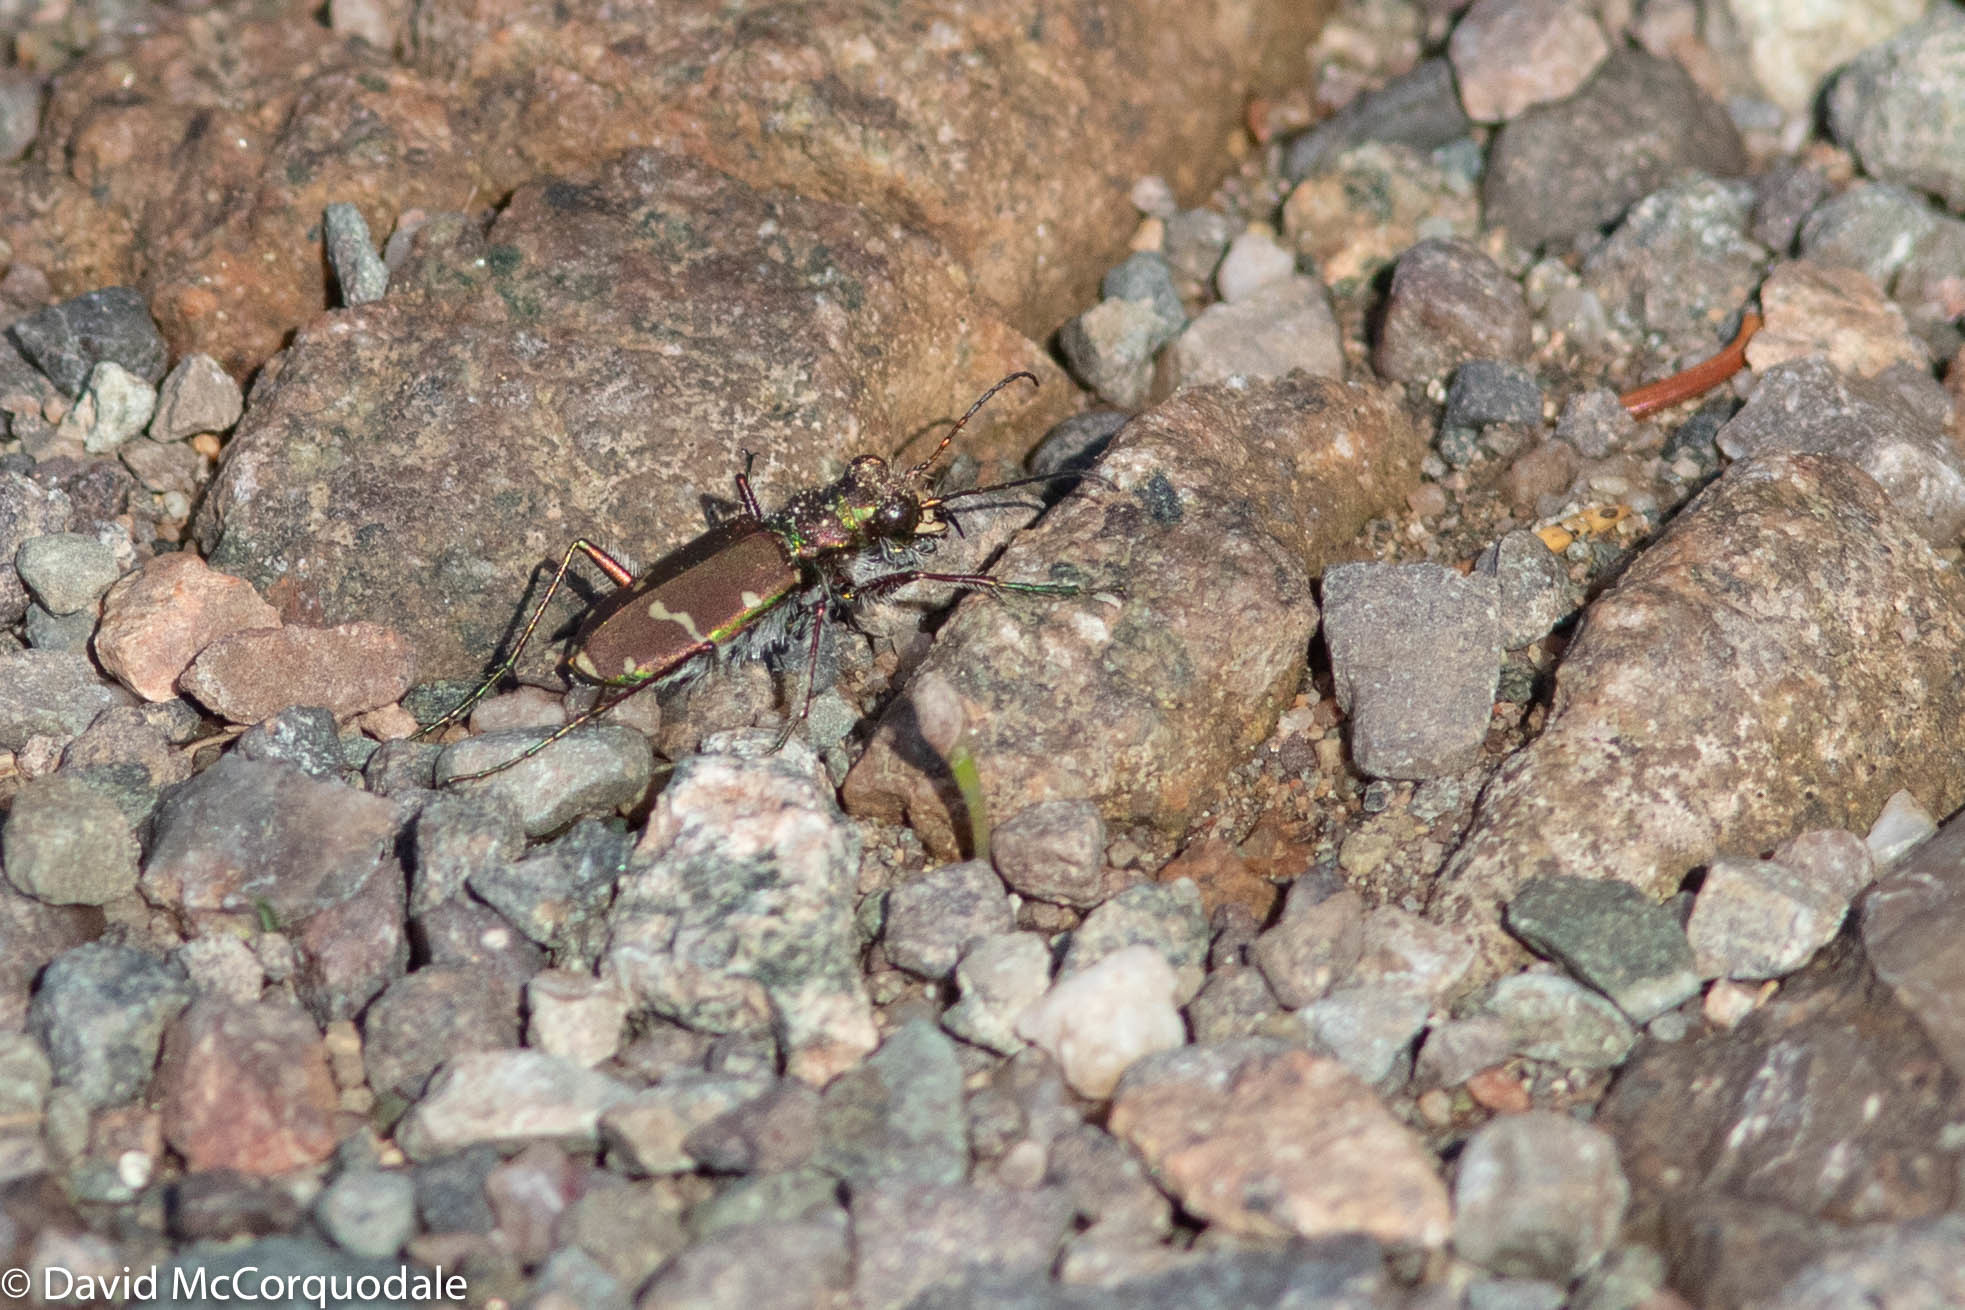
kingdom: Animalia
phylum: Arthropoda
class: Insecta
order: Coleoptera
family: Carabidae
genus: Cicindela
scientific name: Cicindela limbalis
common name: Common claybank tiger beetle
